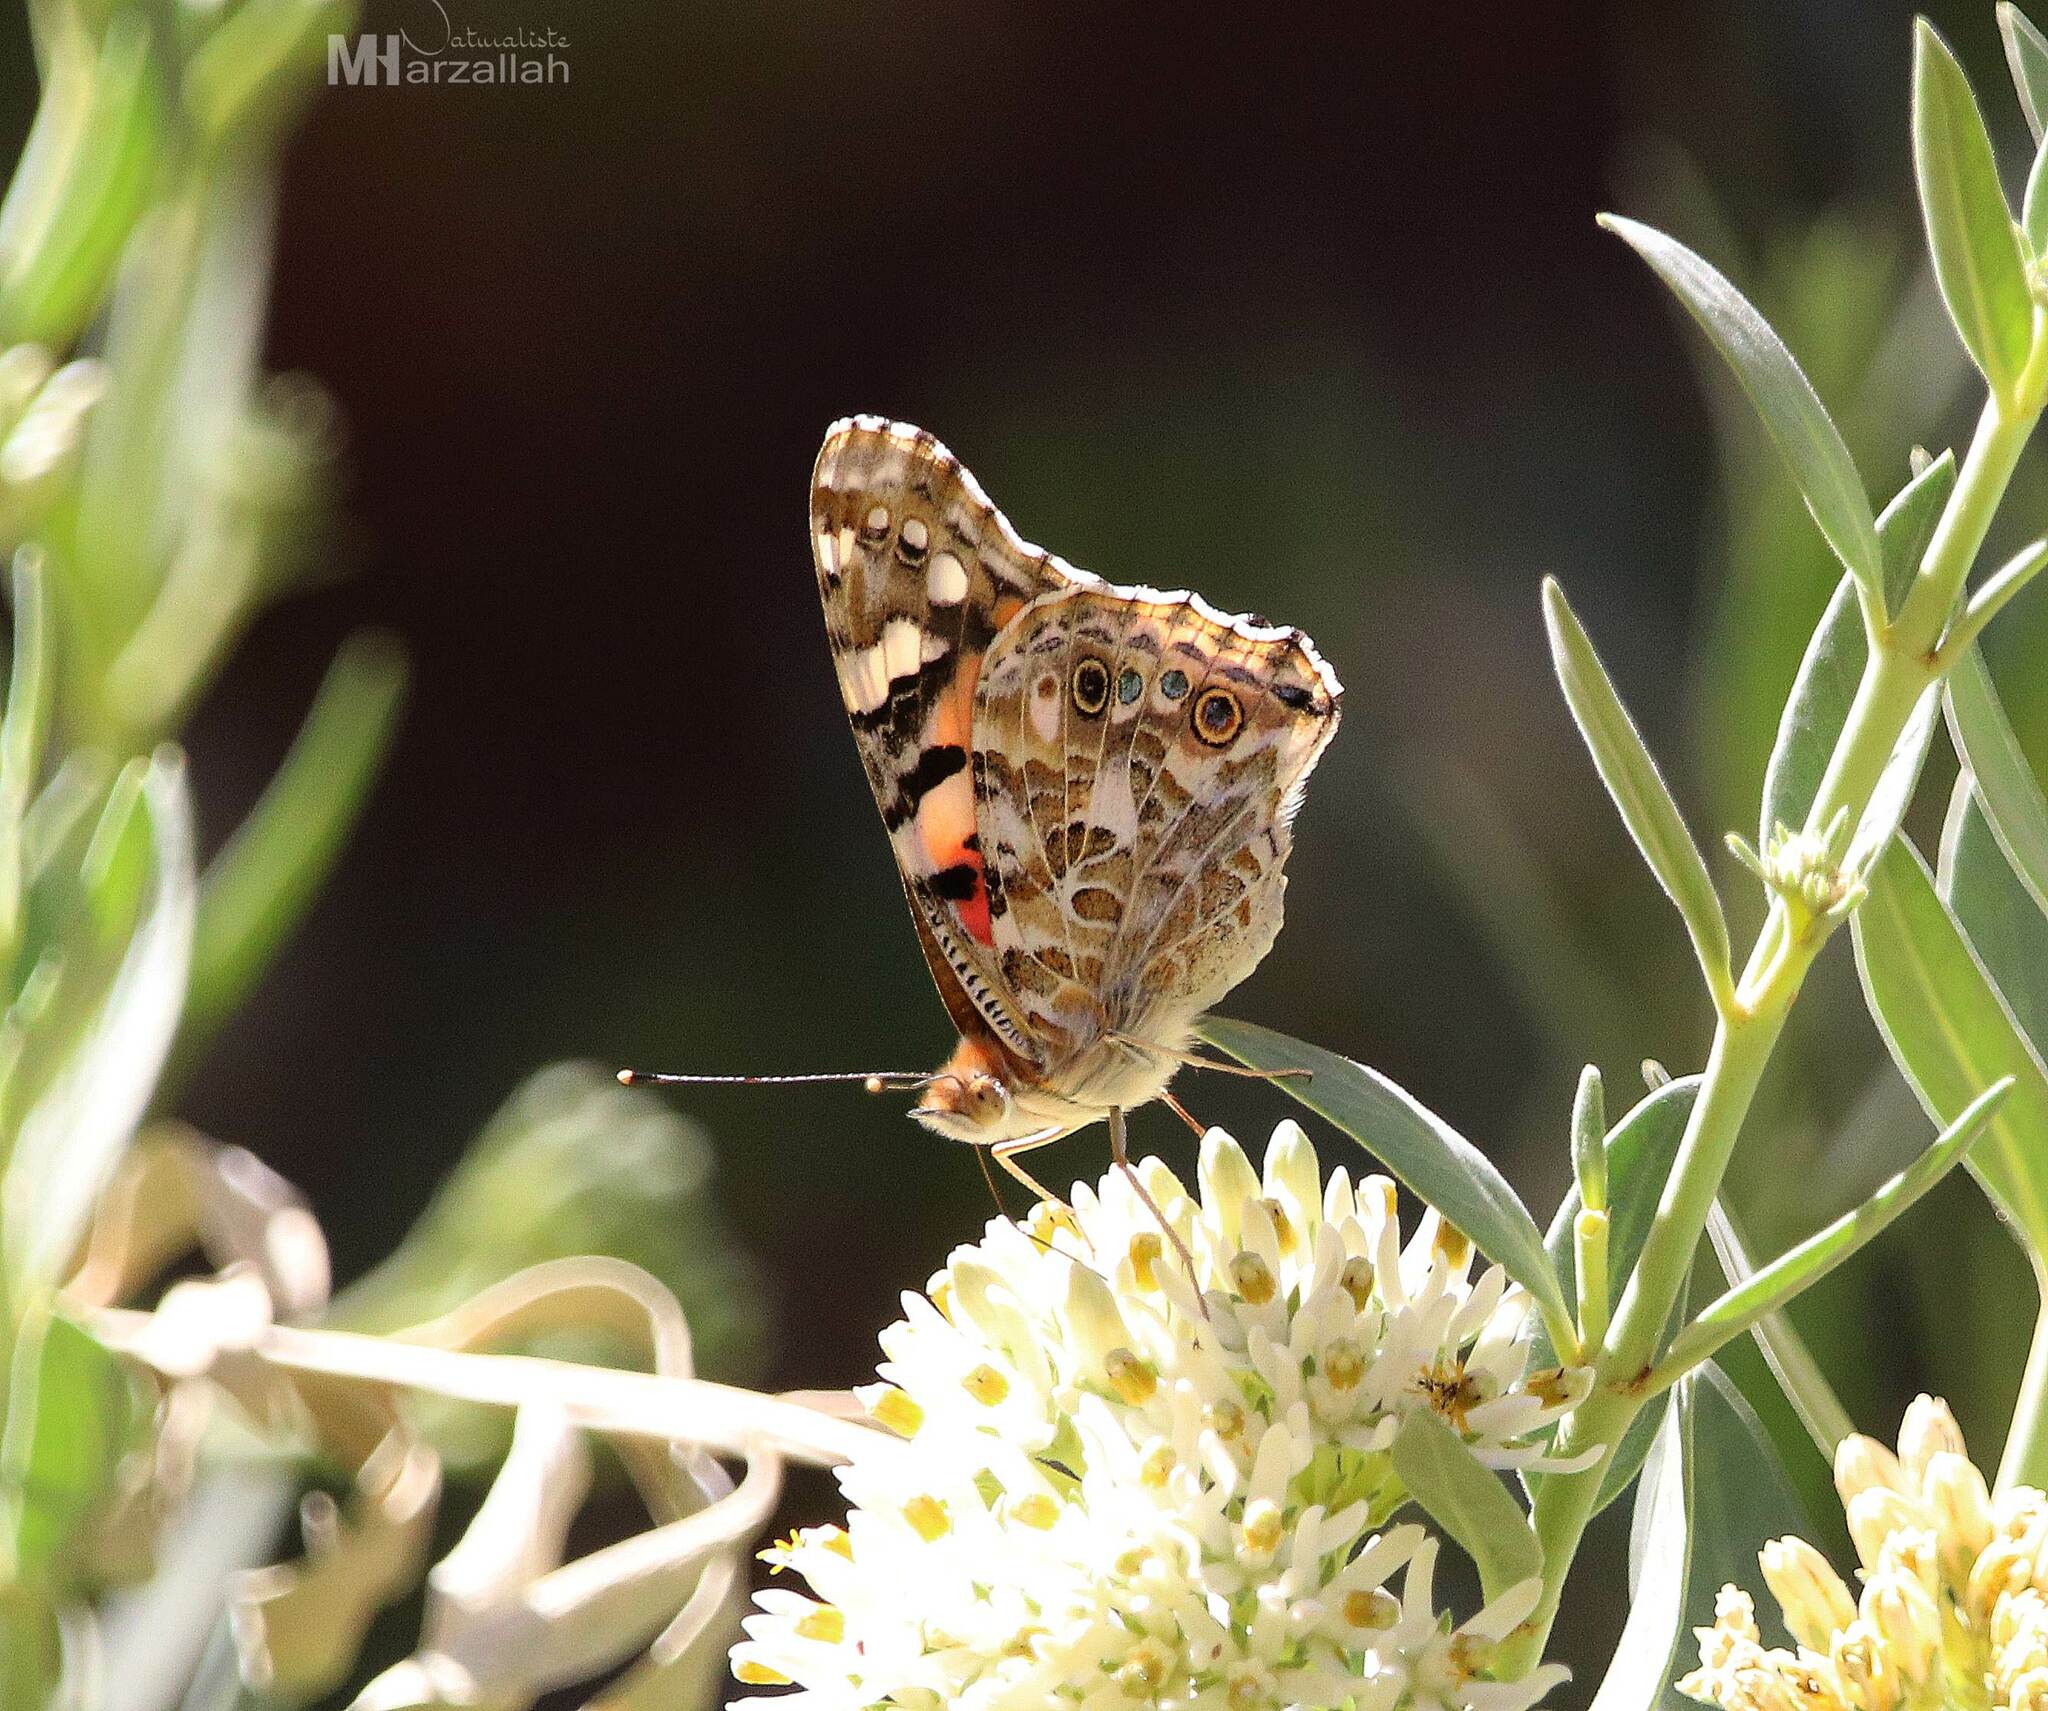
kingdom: Animalia
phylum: Arthropoda
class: Insecta
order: Lepidoptera
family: Nymphalidae
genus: Vanessa
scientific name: Vanessa cardui
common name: Painted lady
